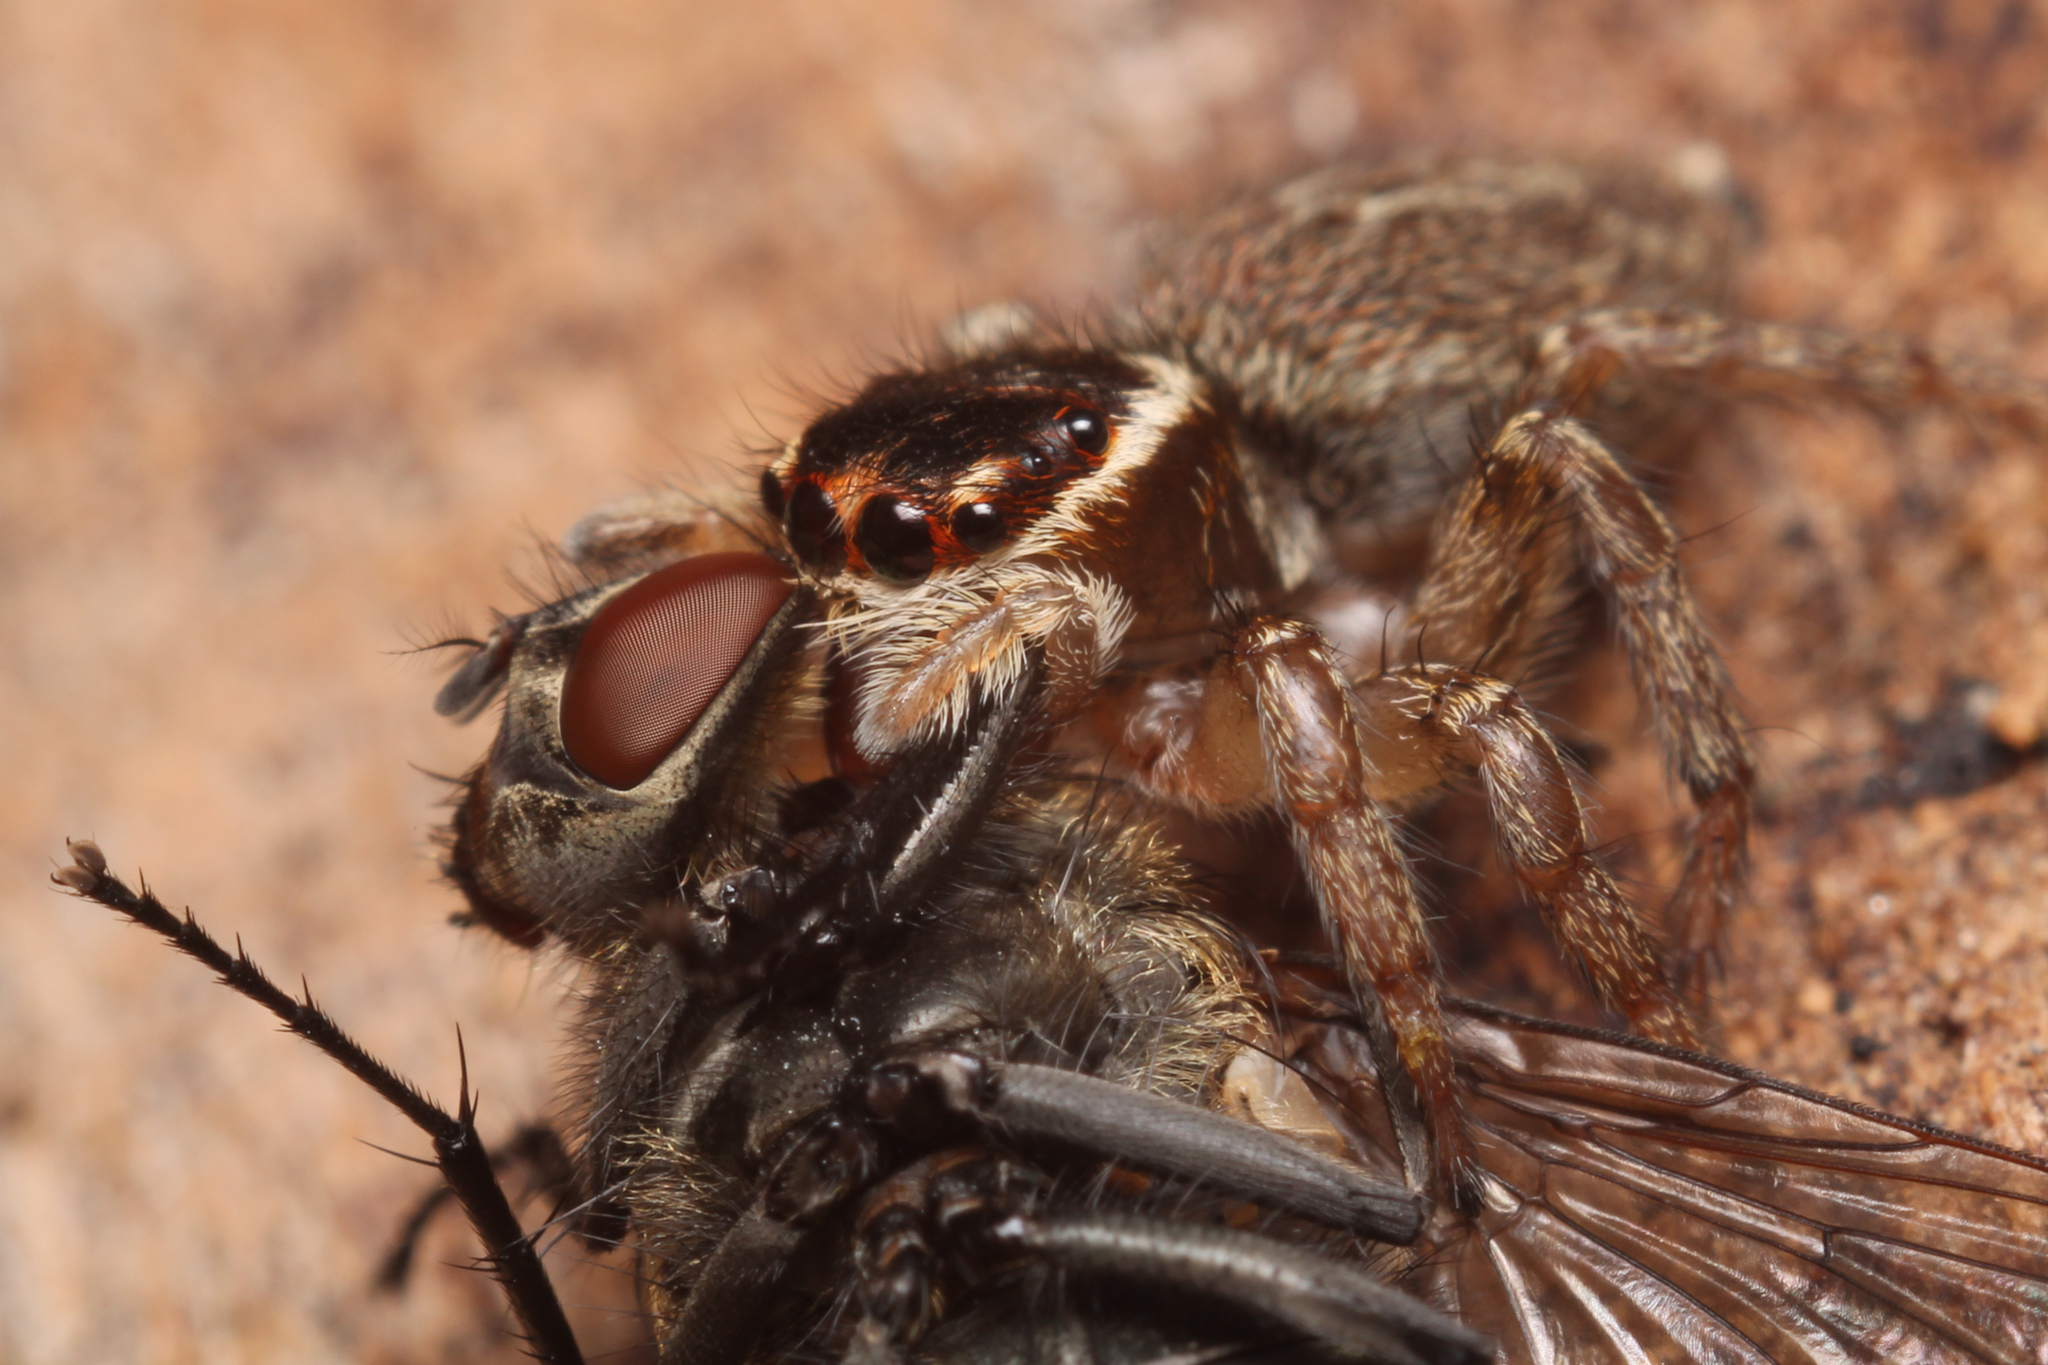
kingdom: Animalia
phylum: Arthropoda
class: Arachnida
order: Araneae
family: Salticidae
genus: Maratus
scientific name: Maratus griseus
